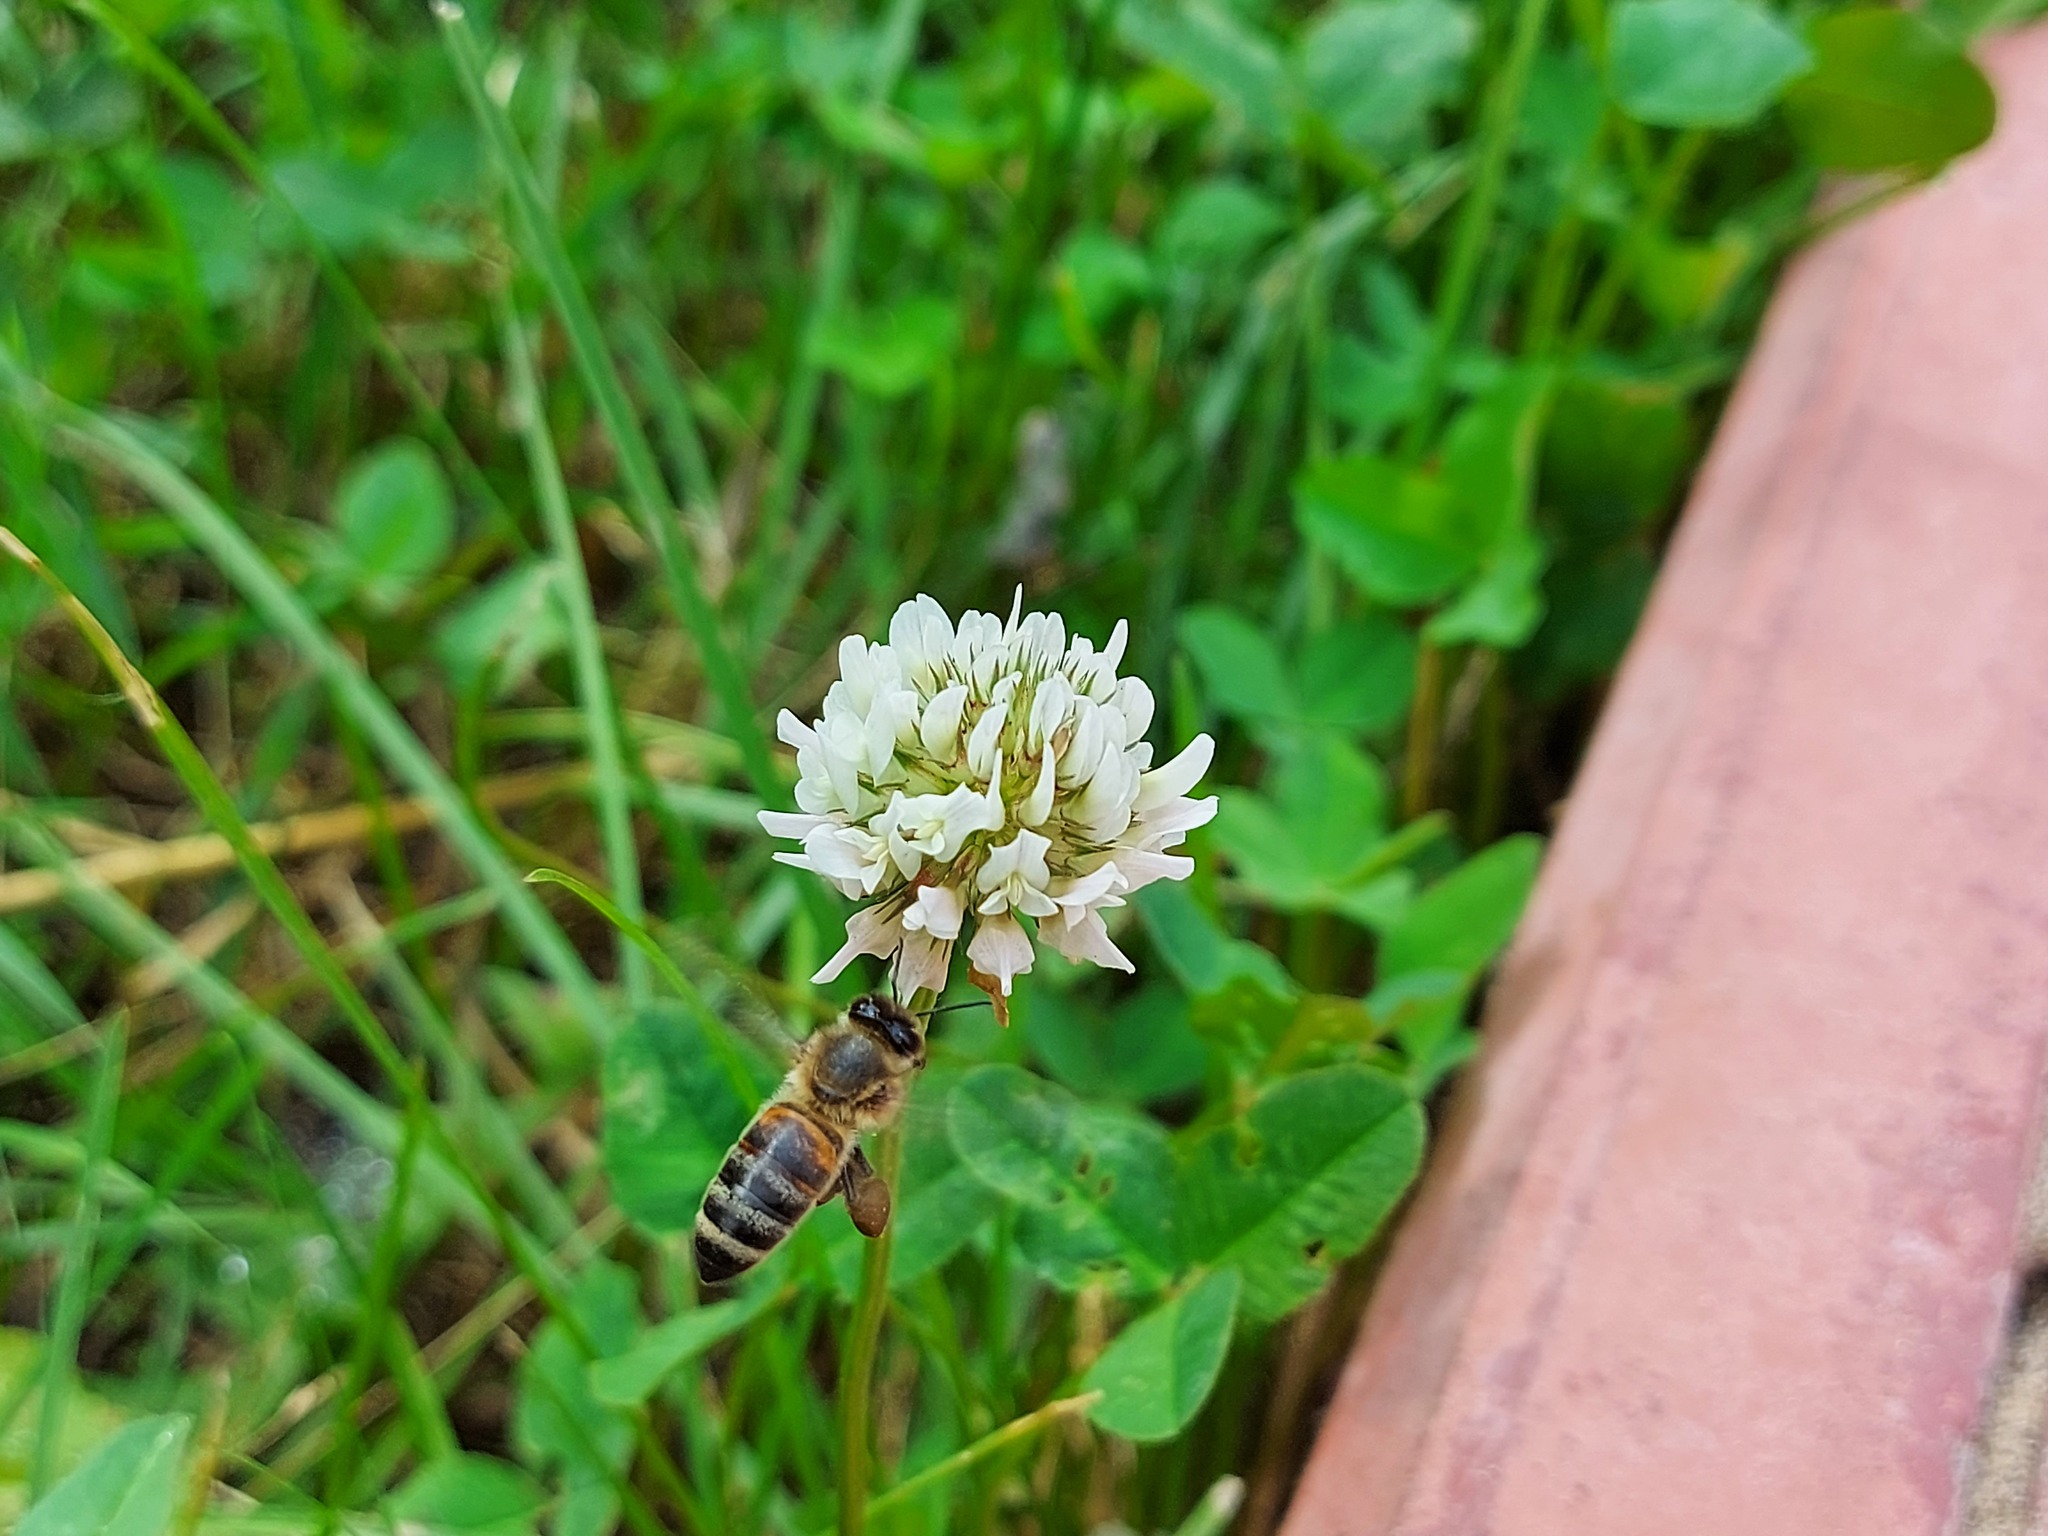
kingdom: Animalia
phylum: Arthropoda
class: Insecta
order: Hymenoptera
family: Apidae
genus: Apis
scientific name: Apis mellifera
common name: Honey bee
